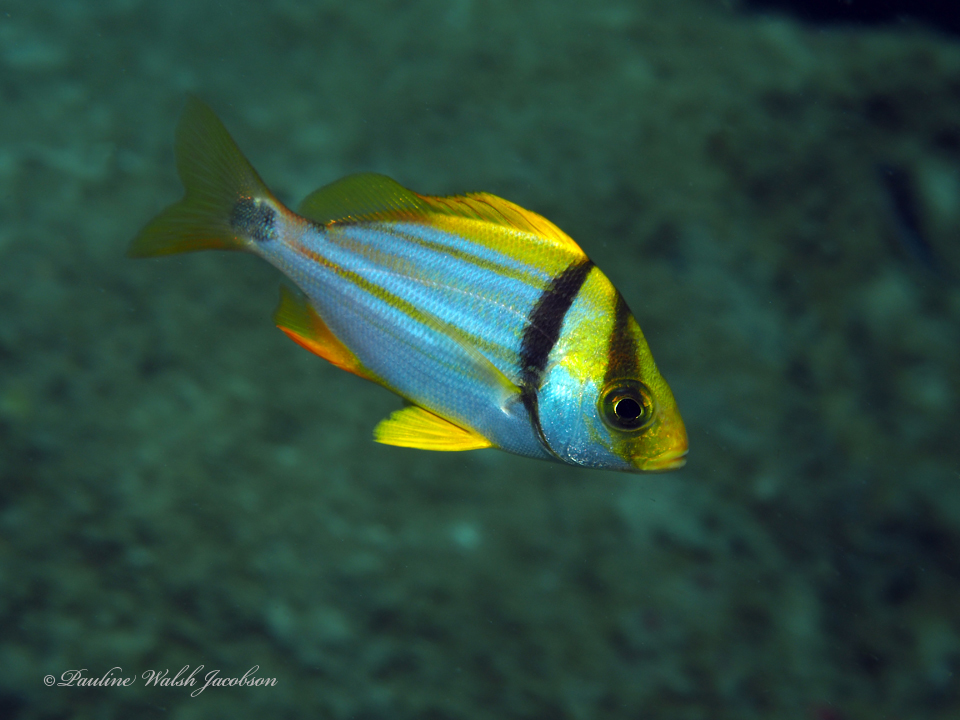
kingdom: Animalia
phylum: Chordata
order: Perciformes
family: Haemulidae
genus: Anisotremus
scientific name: Anisotremus virginicus
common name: Porkfish
